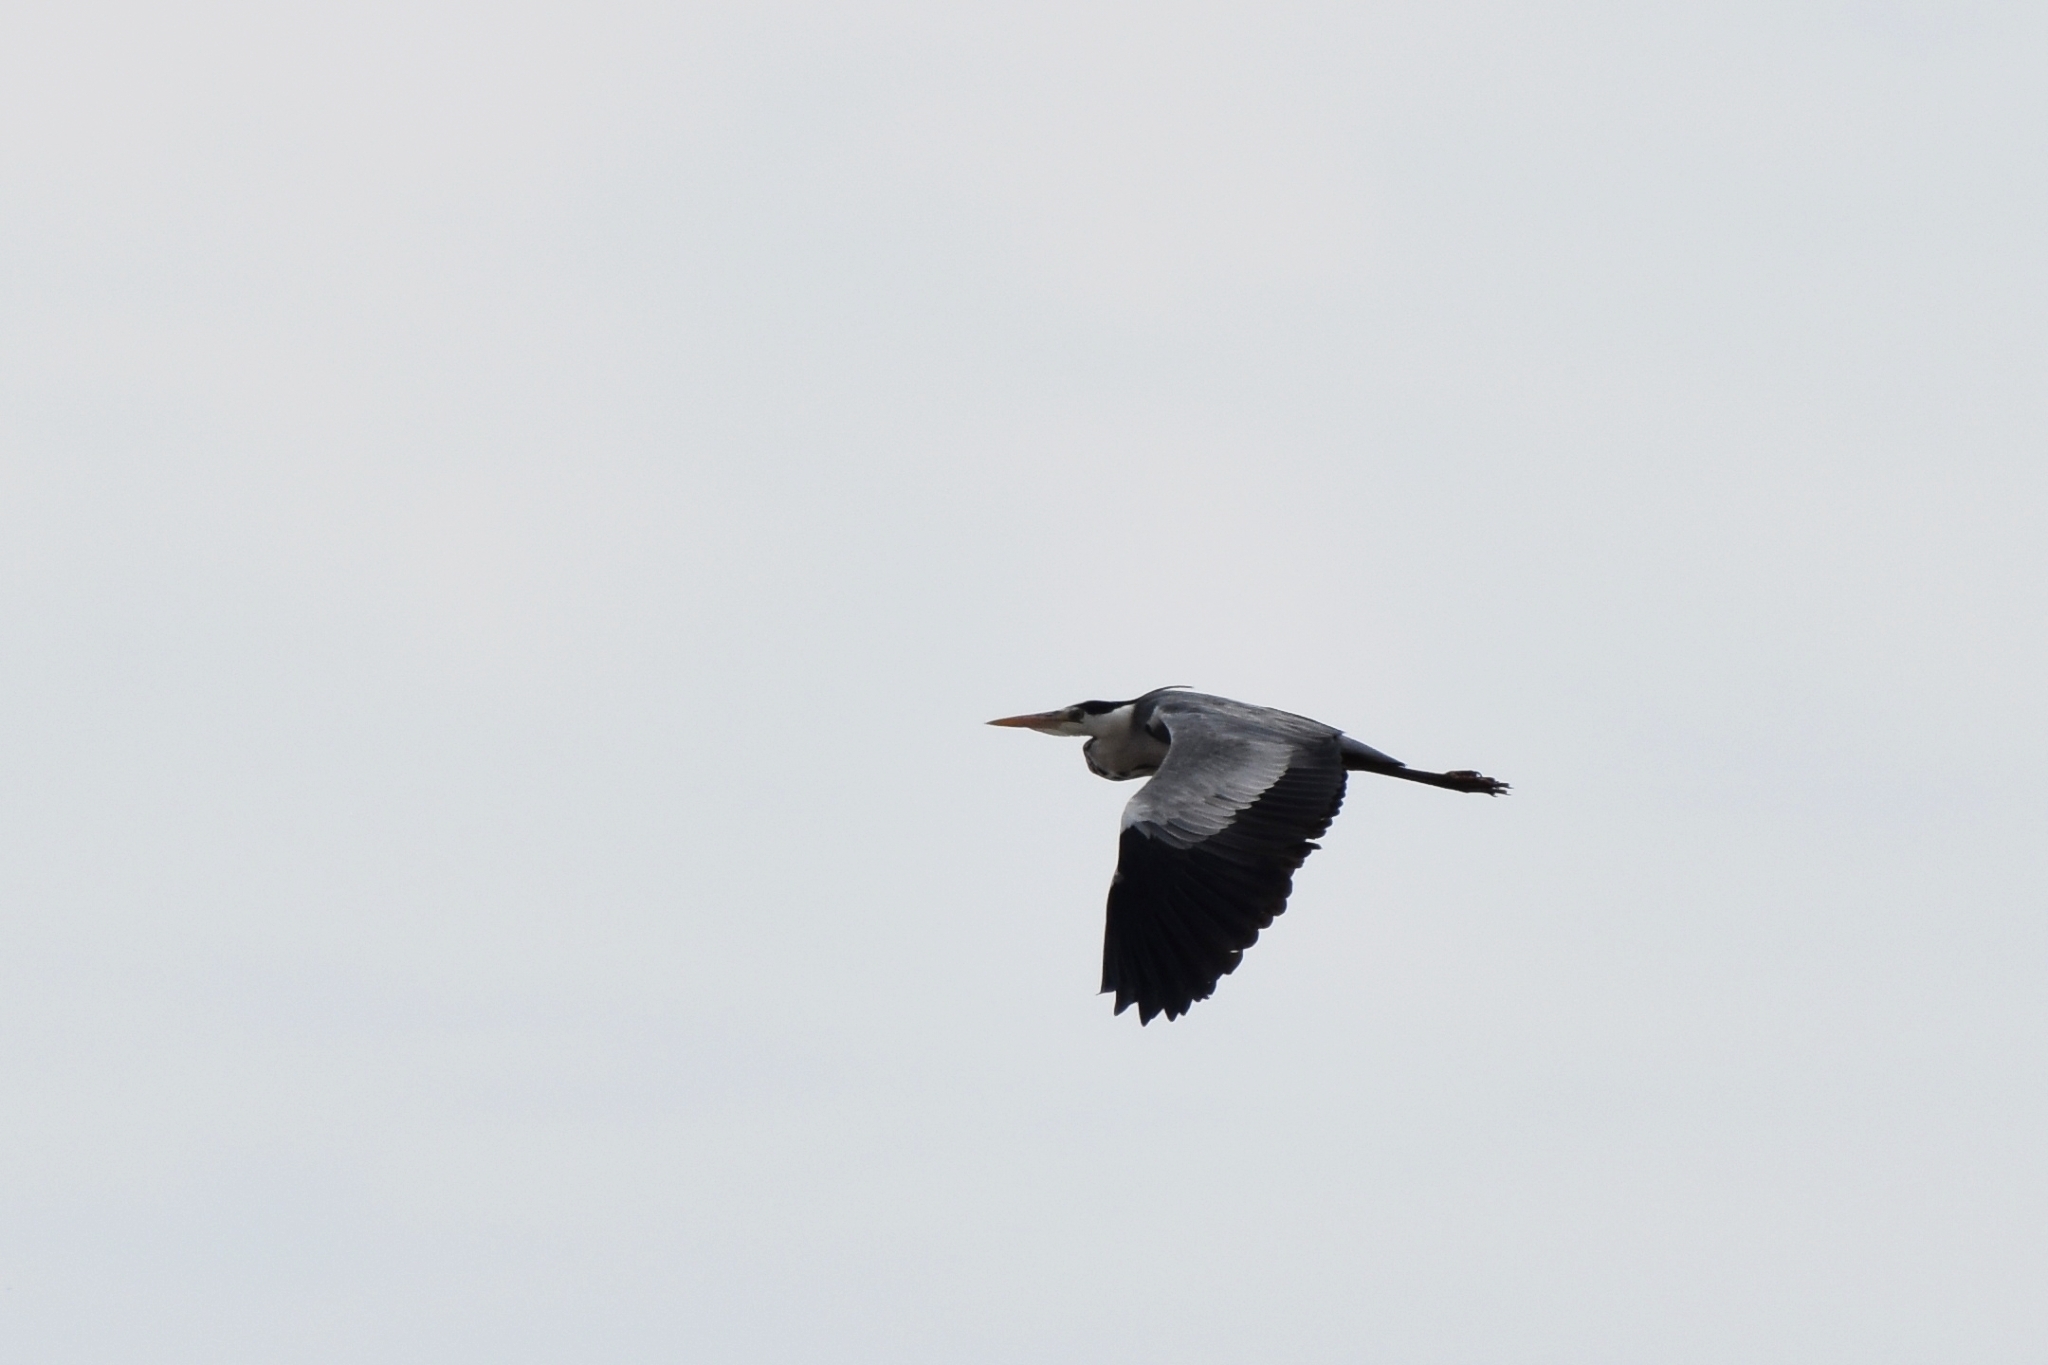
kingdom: Animalia
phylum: Chordata
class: Aves
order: Pelecaniformes
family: Ardeidae
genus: Ardea
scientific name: Ardea cinerea
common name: Grey heron
